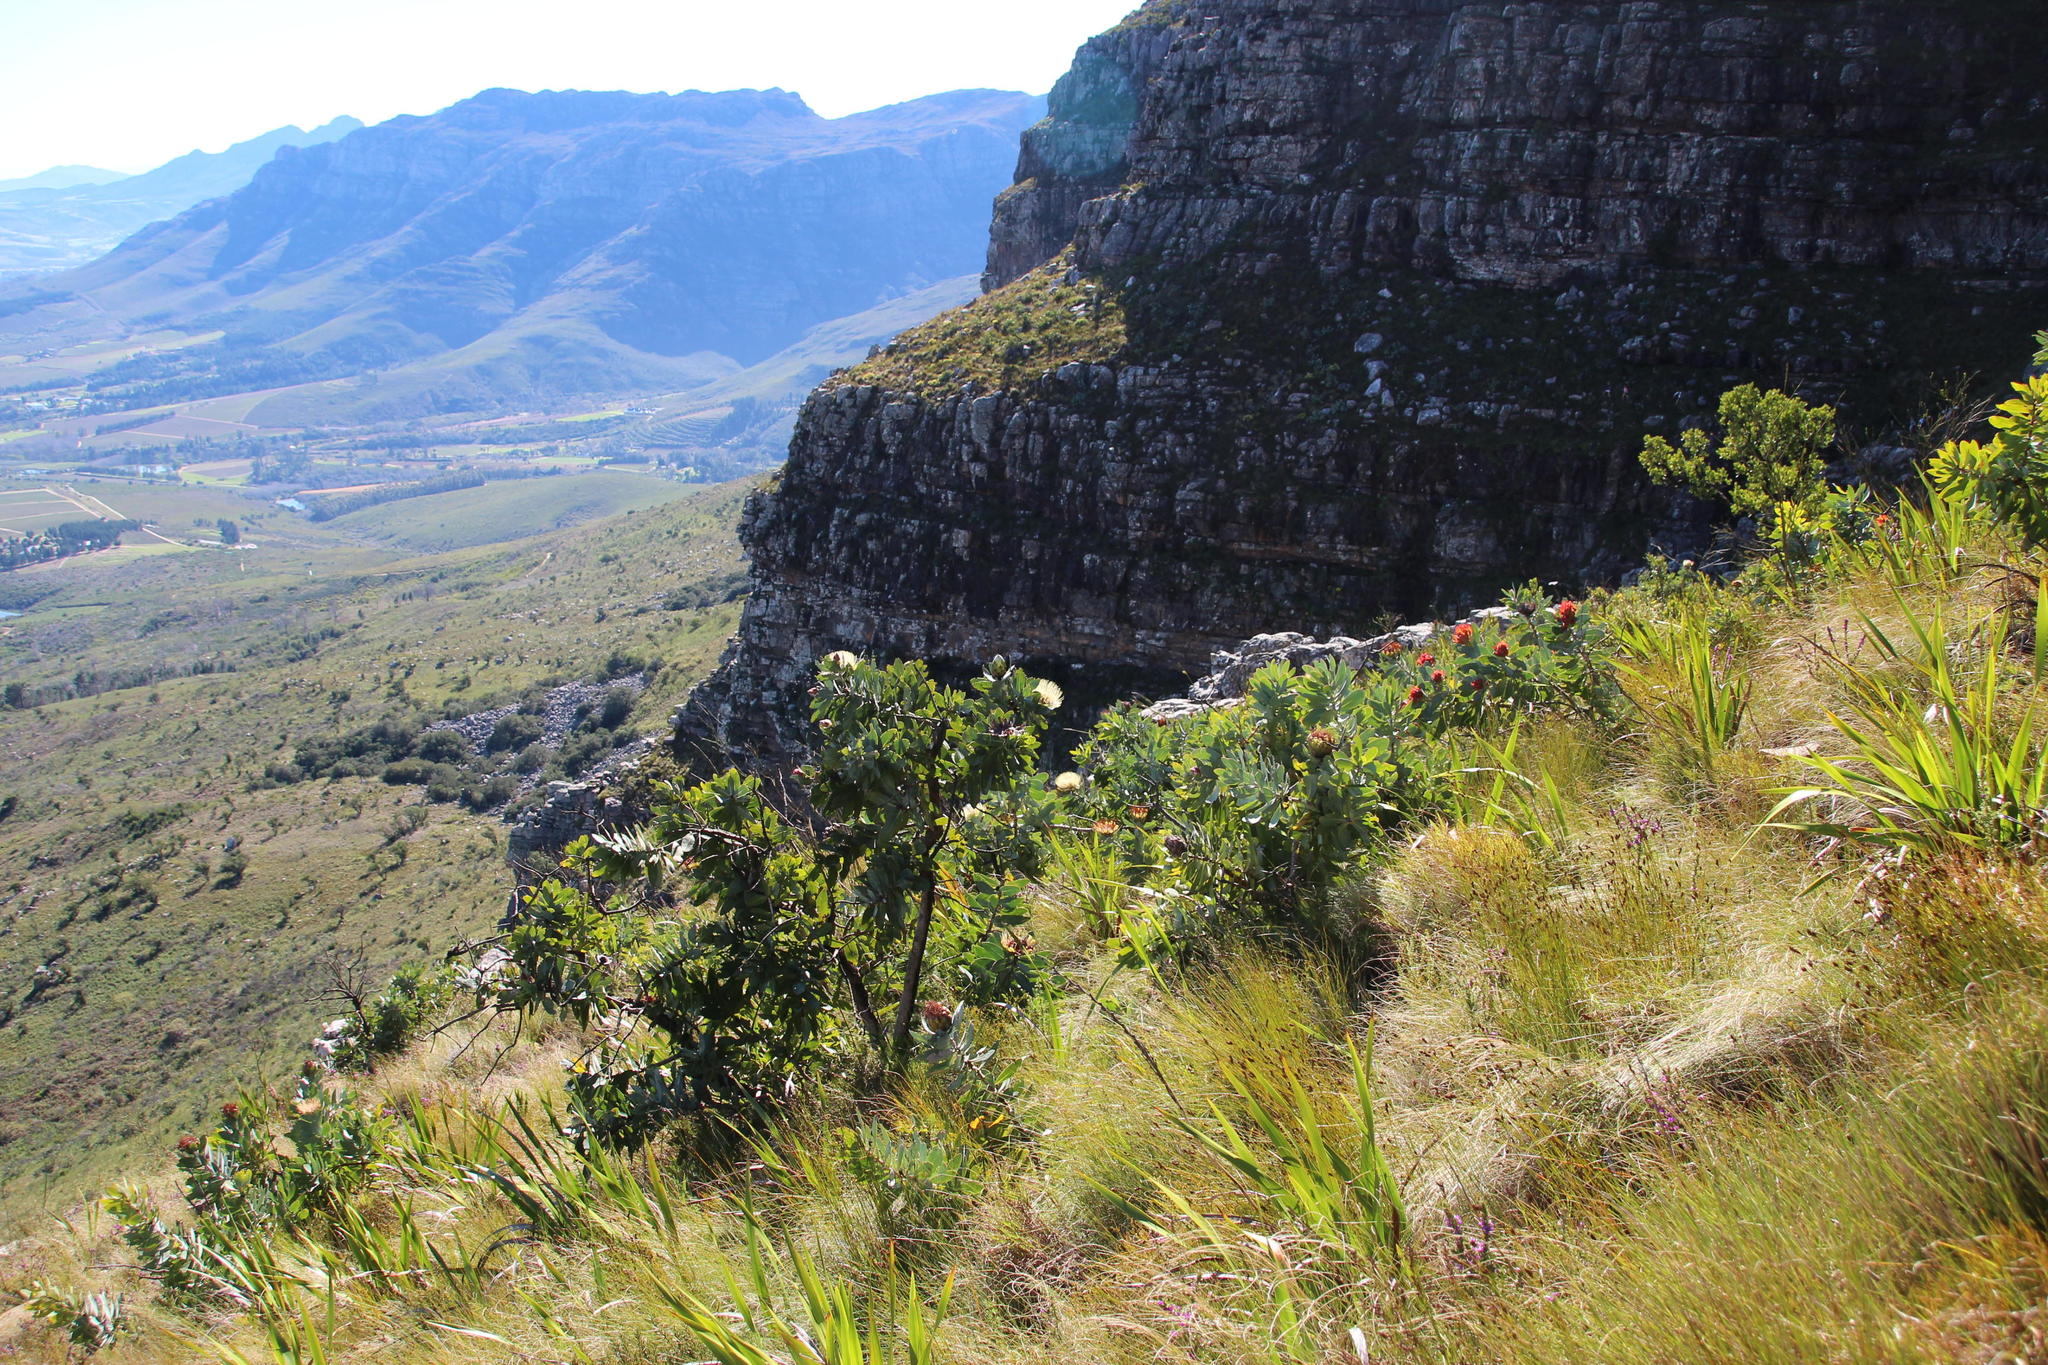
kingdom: Plantae
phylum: Tracheophyta
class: Magnoliopsida
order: Proteales
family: Proteaceae
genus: Protea
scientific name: Protea nitida
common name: Tree protea
